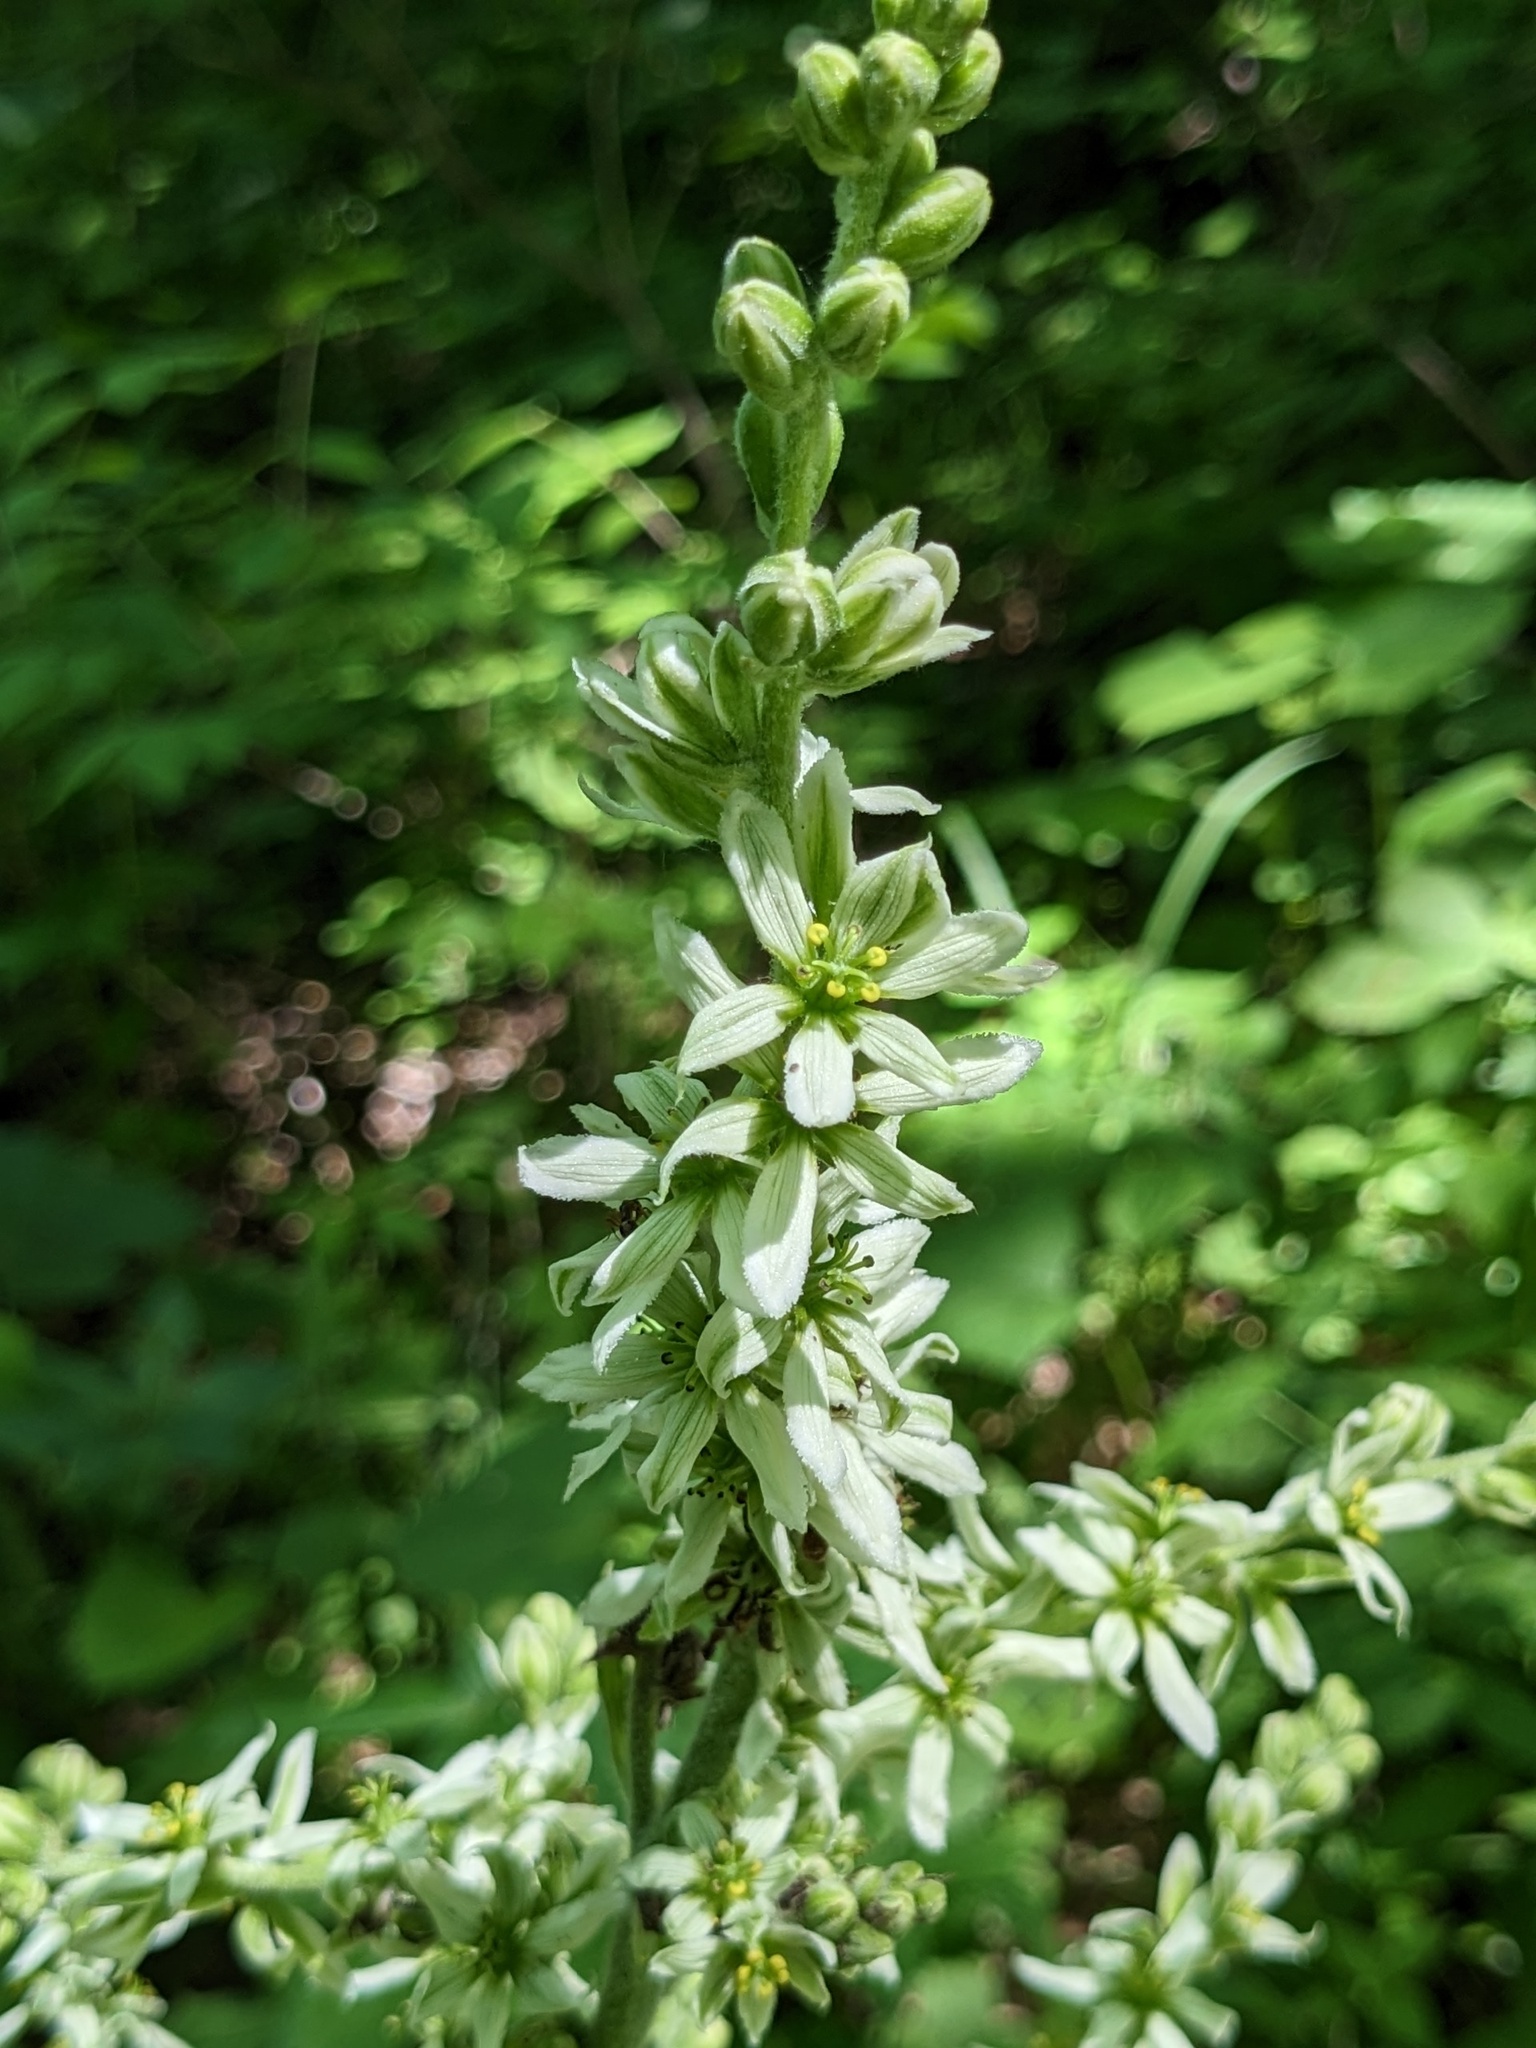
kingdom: Plantae
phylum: Tracheophyta
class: Liliopsida
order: Liliales
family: Melanthiaceae
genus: Veratrum
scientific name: Veratrum dahuricum
